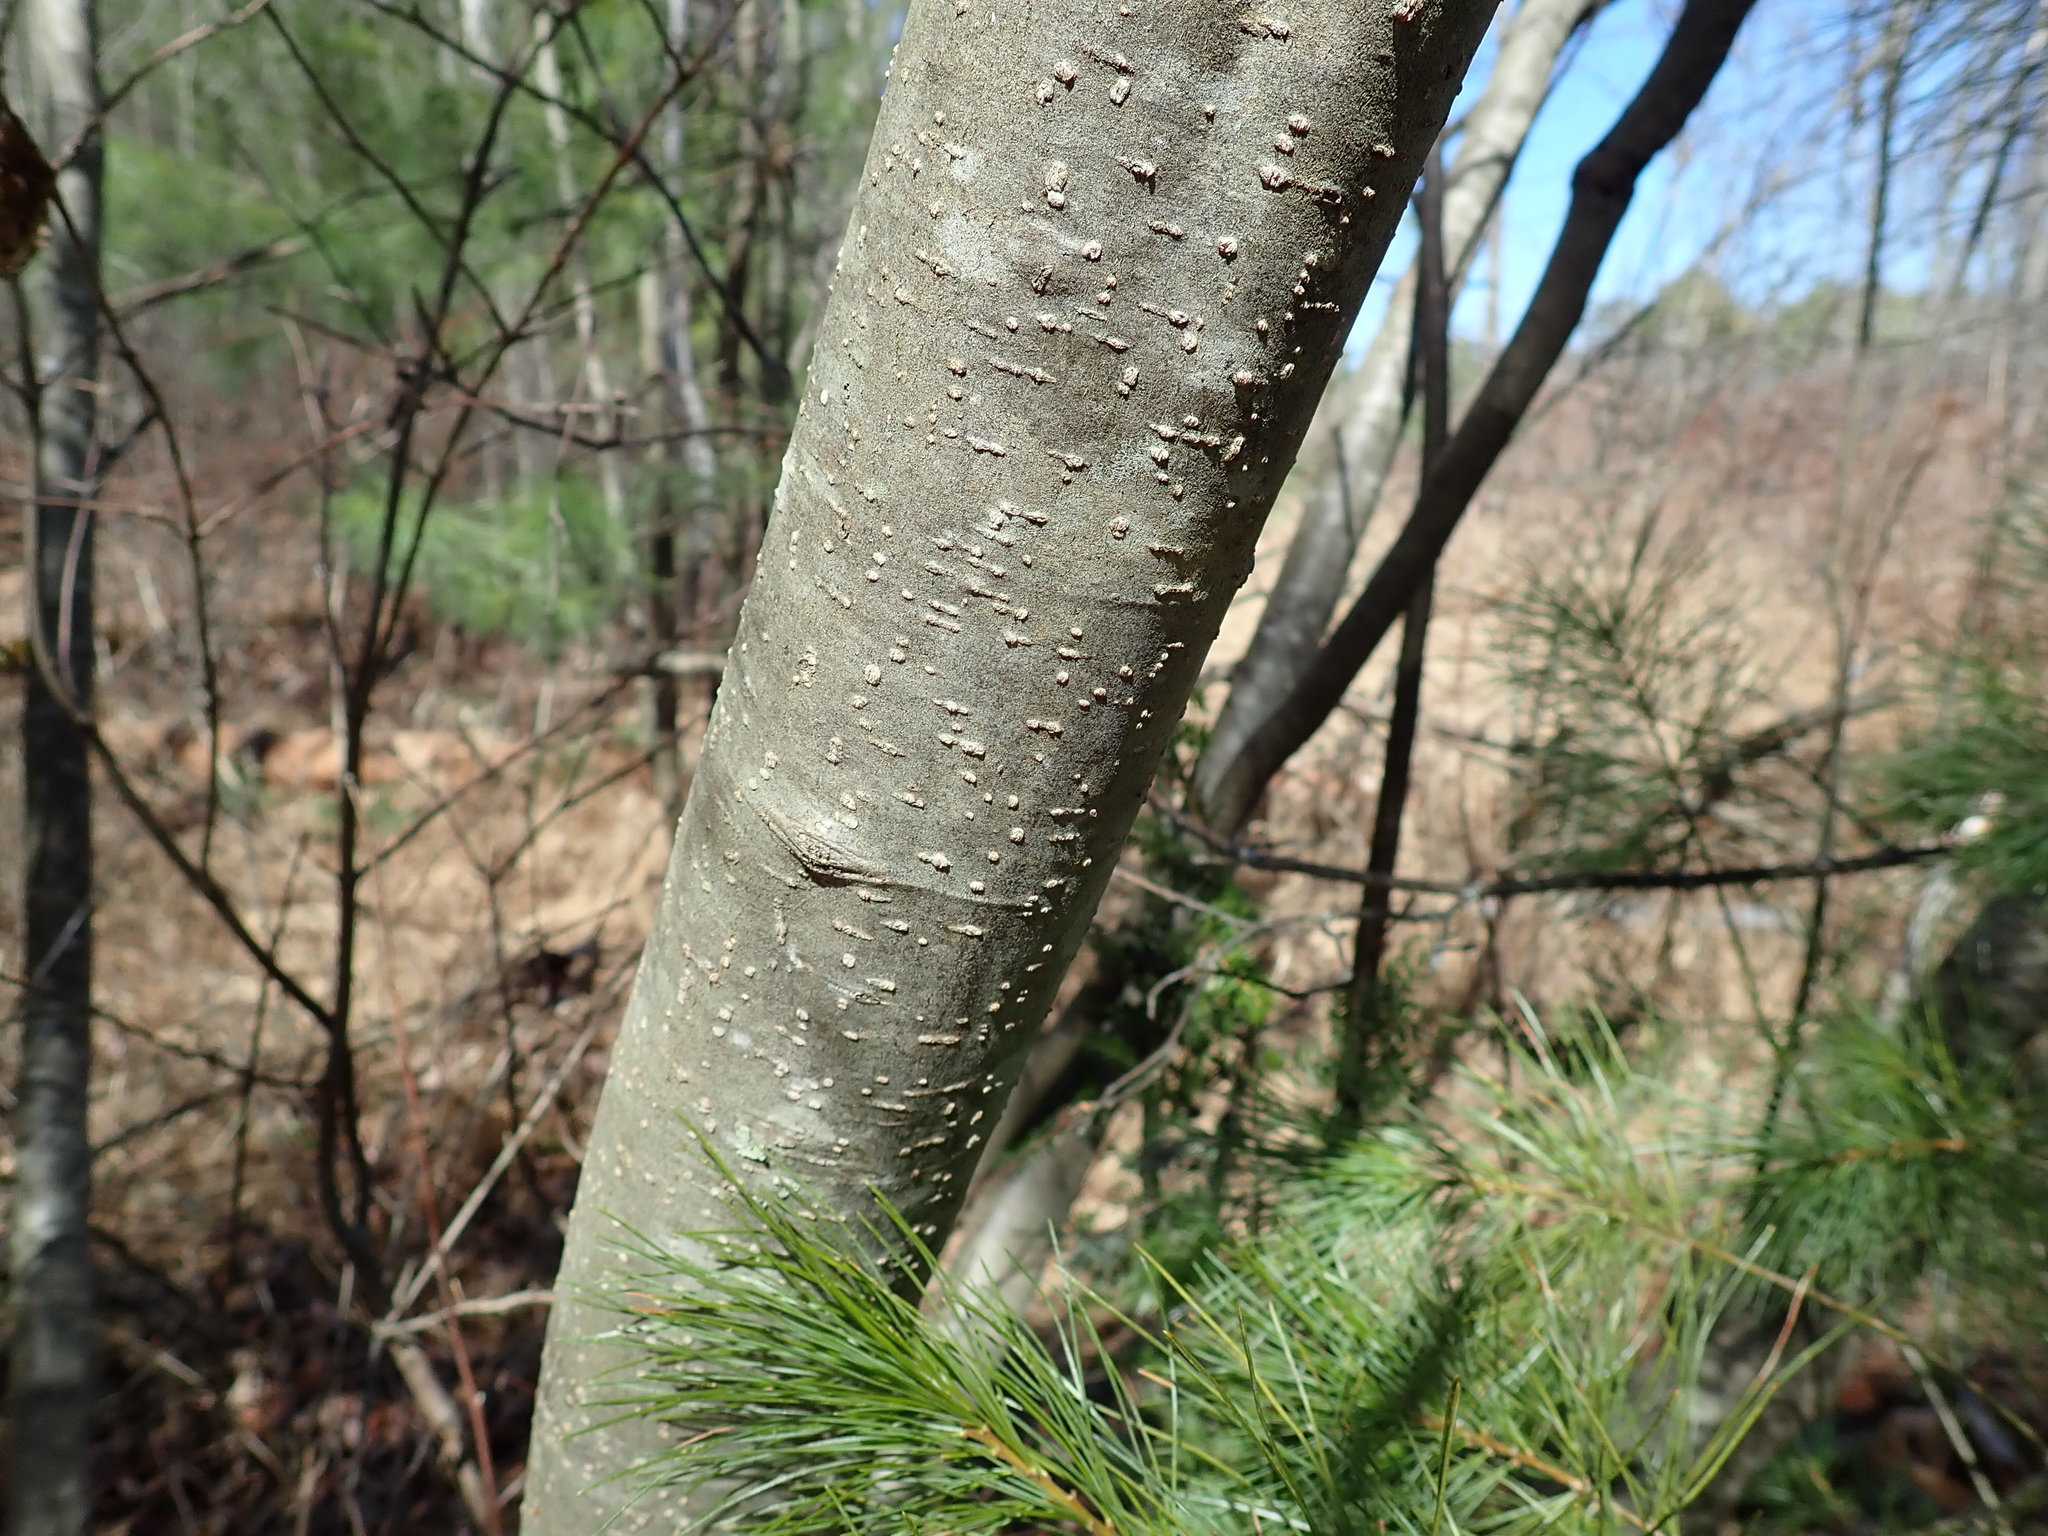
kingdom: Plantae
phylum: Tracheophyta
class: Magnoliopsida
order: Fagales
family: Betulaceae
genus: Alnus
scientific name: Alnus
